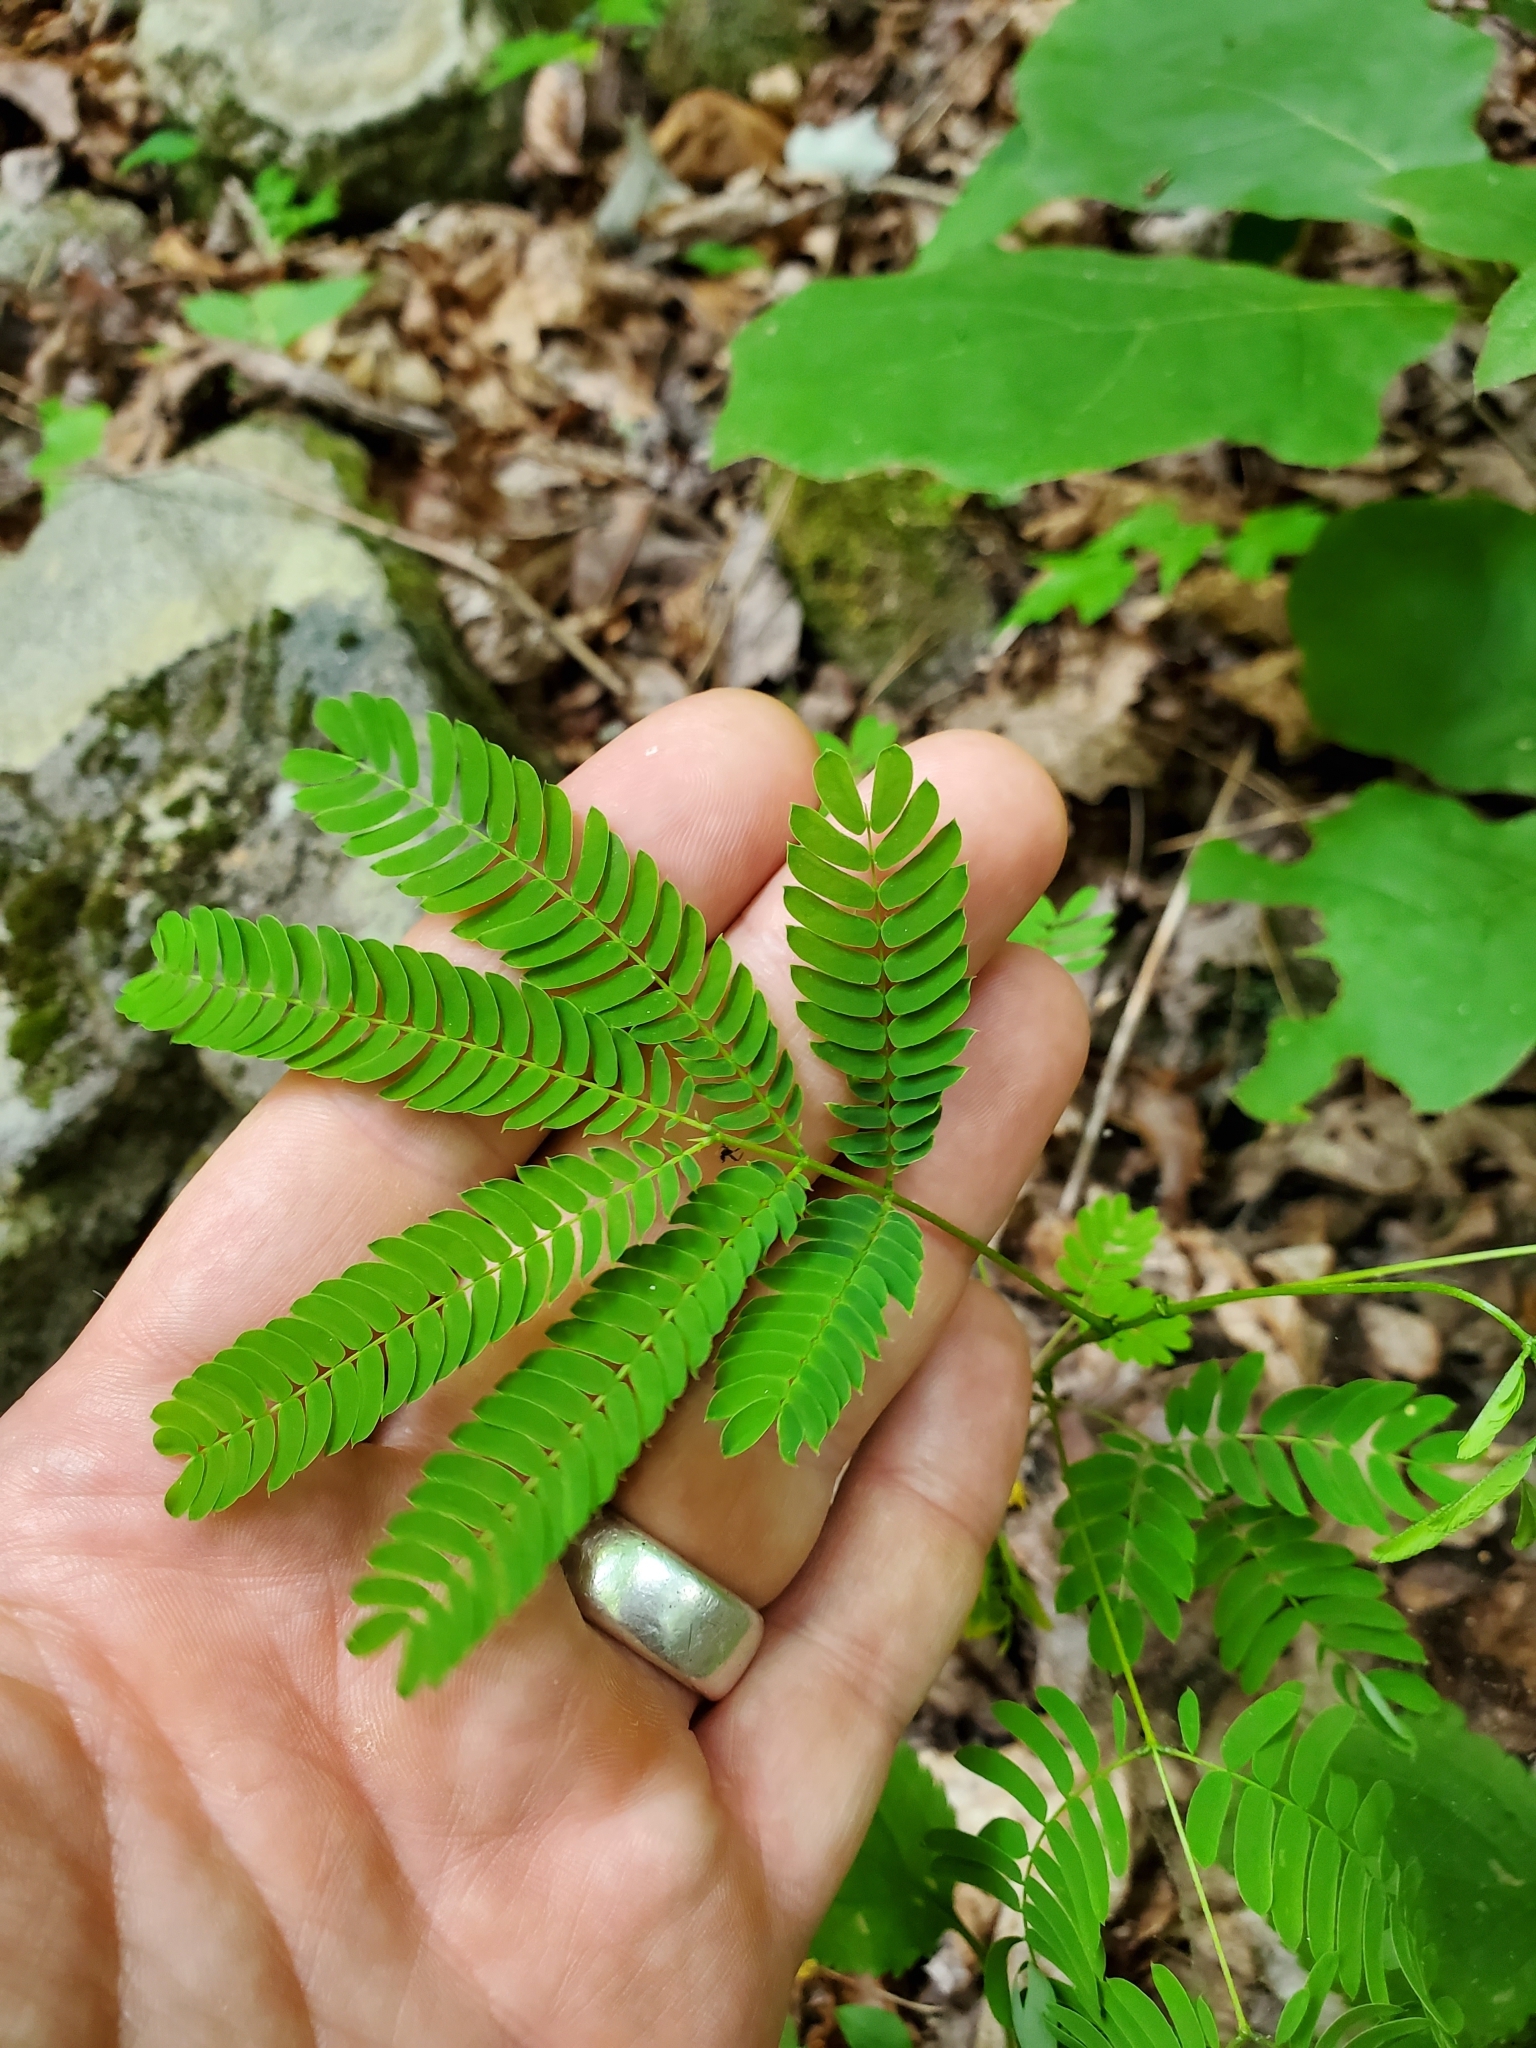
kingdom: Plantae
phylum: Tracheophyta
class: Magnoliopsida
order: Fabales
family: Fabaceae
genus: Albizia
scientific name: Albizia julibrissin
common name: Silktree
